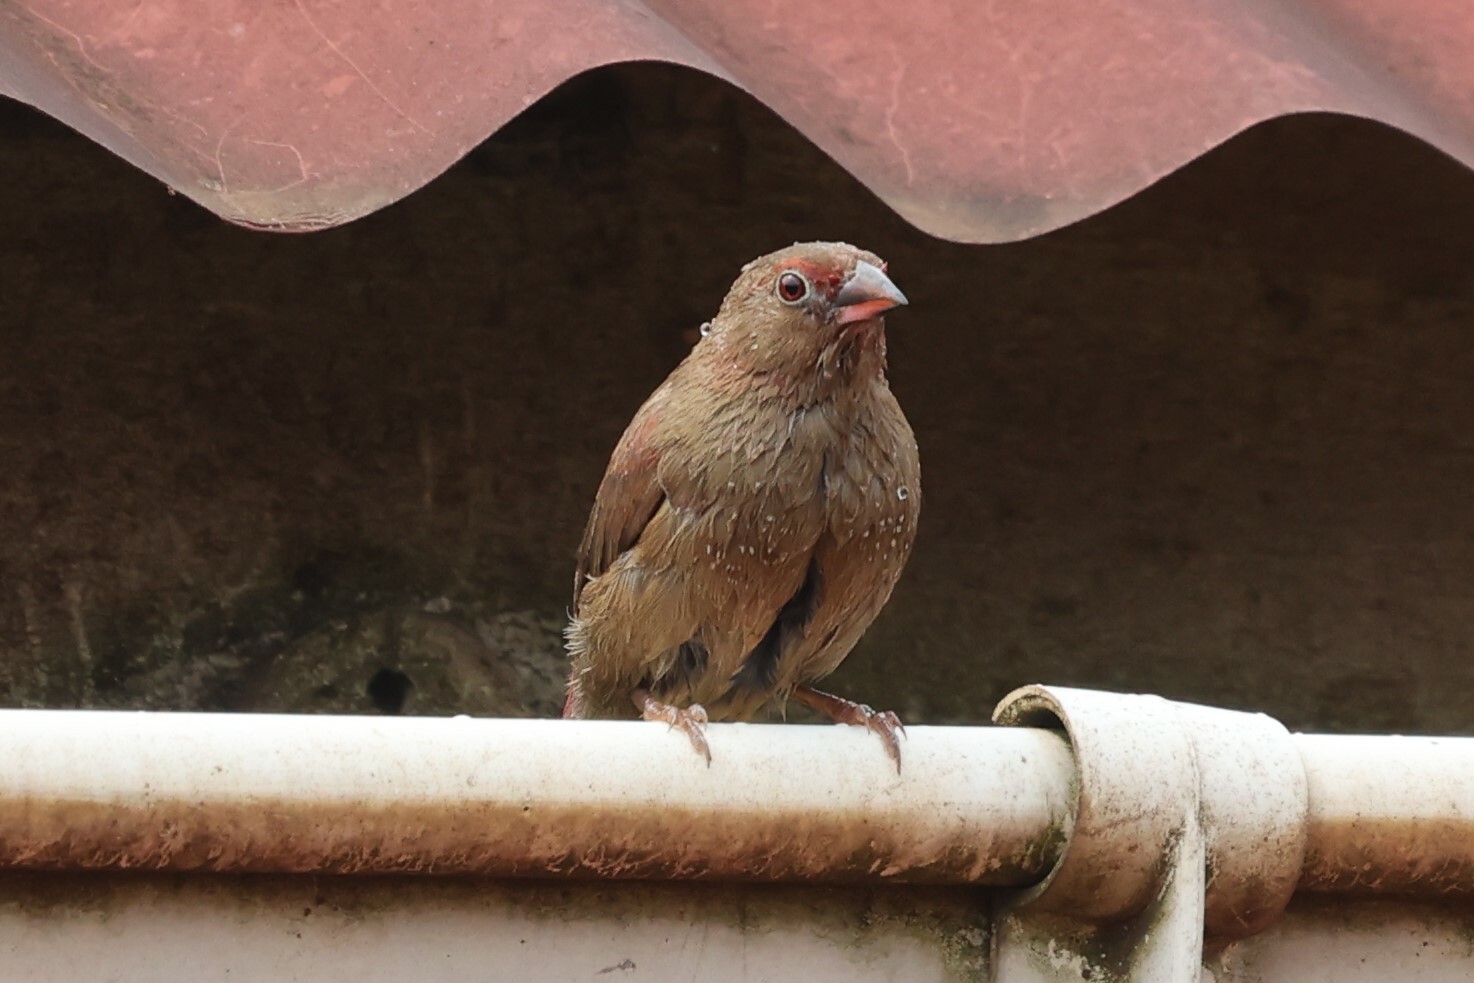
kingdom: Animalia
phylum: Chordata
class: Aves
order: Passeriformes
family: Estrildidae
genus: Lagonosticta
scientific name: Lagonosticta senegala
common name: Red-billed firefinch
